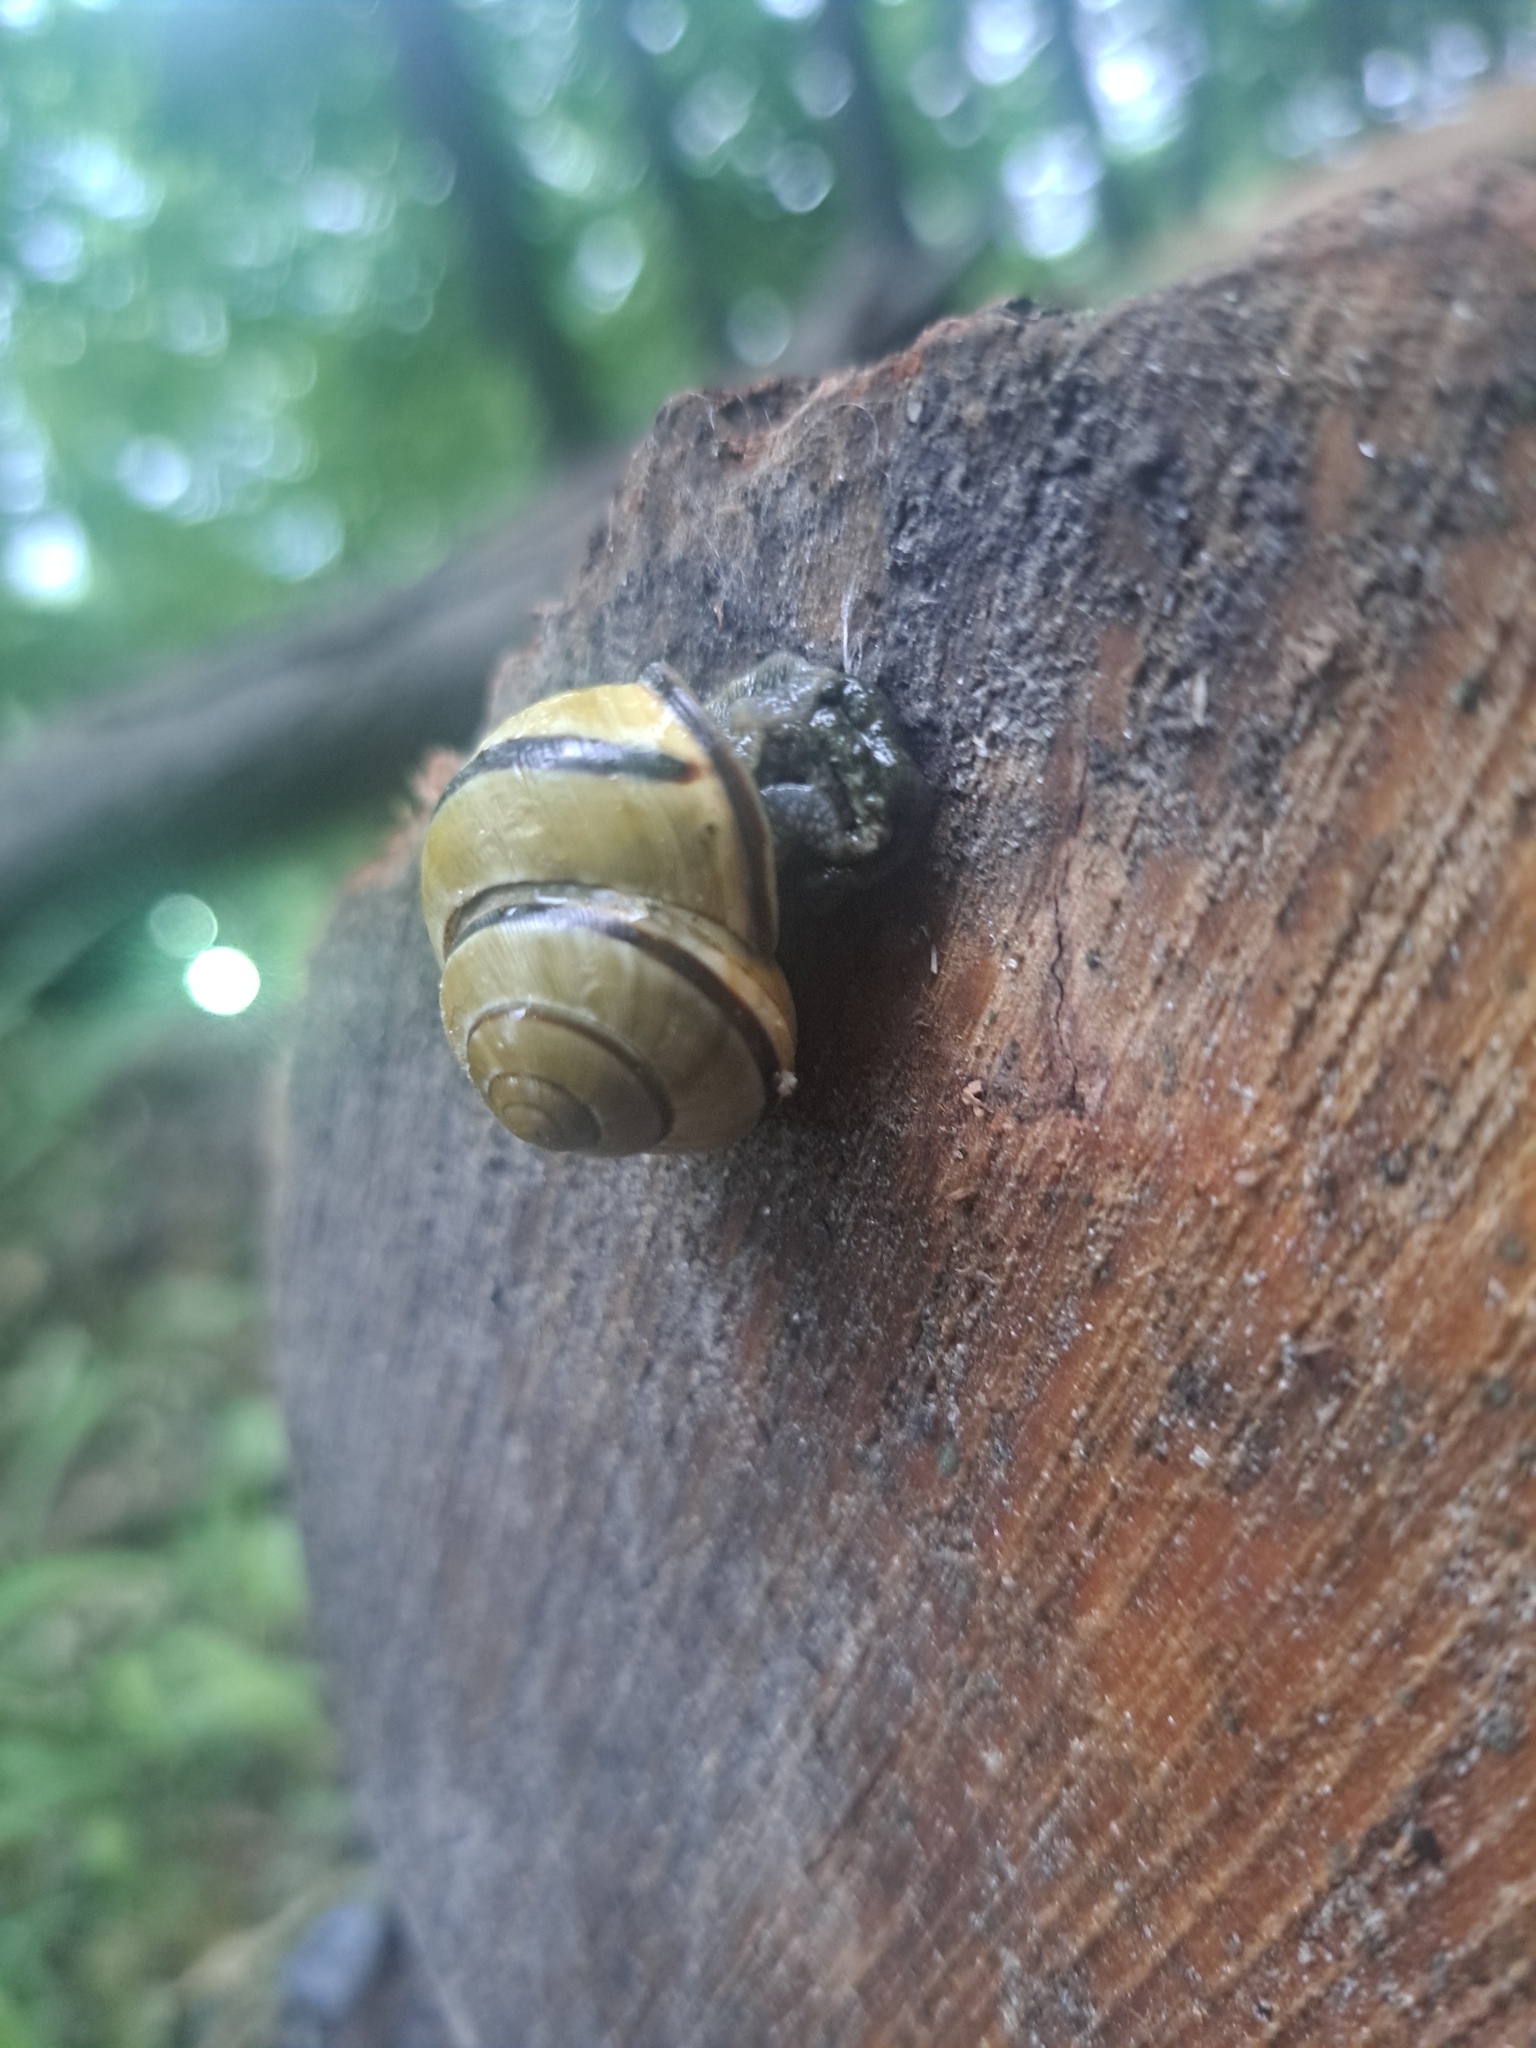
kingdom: Animalia
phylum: Mollusca
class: Gastropoda
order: Stylommatophora
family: Helicidae
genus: Cepaea
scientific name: Cepaea nemoralis
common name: Grovesnail
